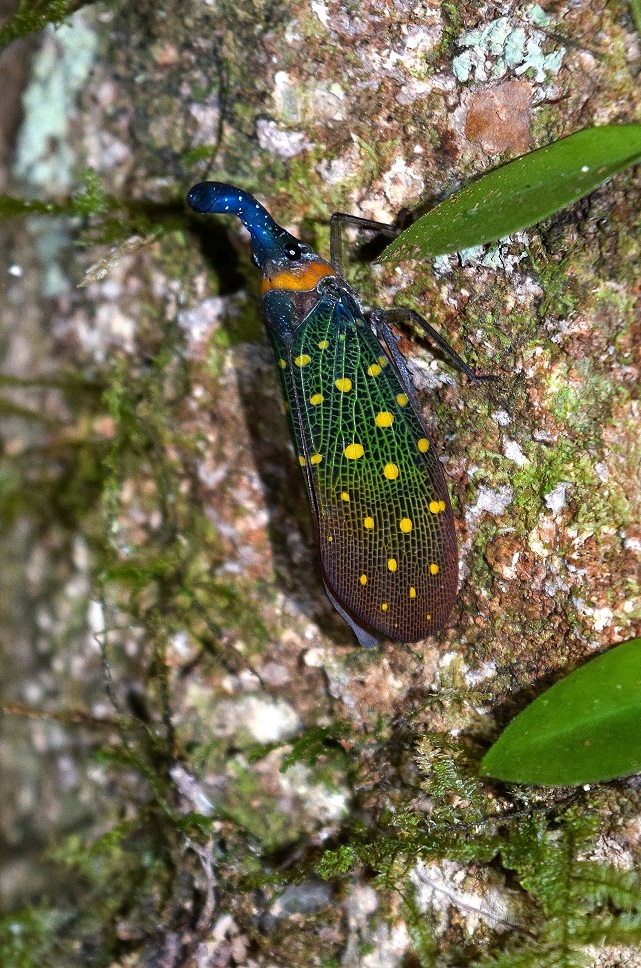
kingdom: Animalia
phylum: Arthropoda
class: Insecta
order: Hemiptera
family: Fulgoridae
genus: Pyrops
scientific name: Pyrops whiteheadi
